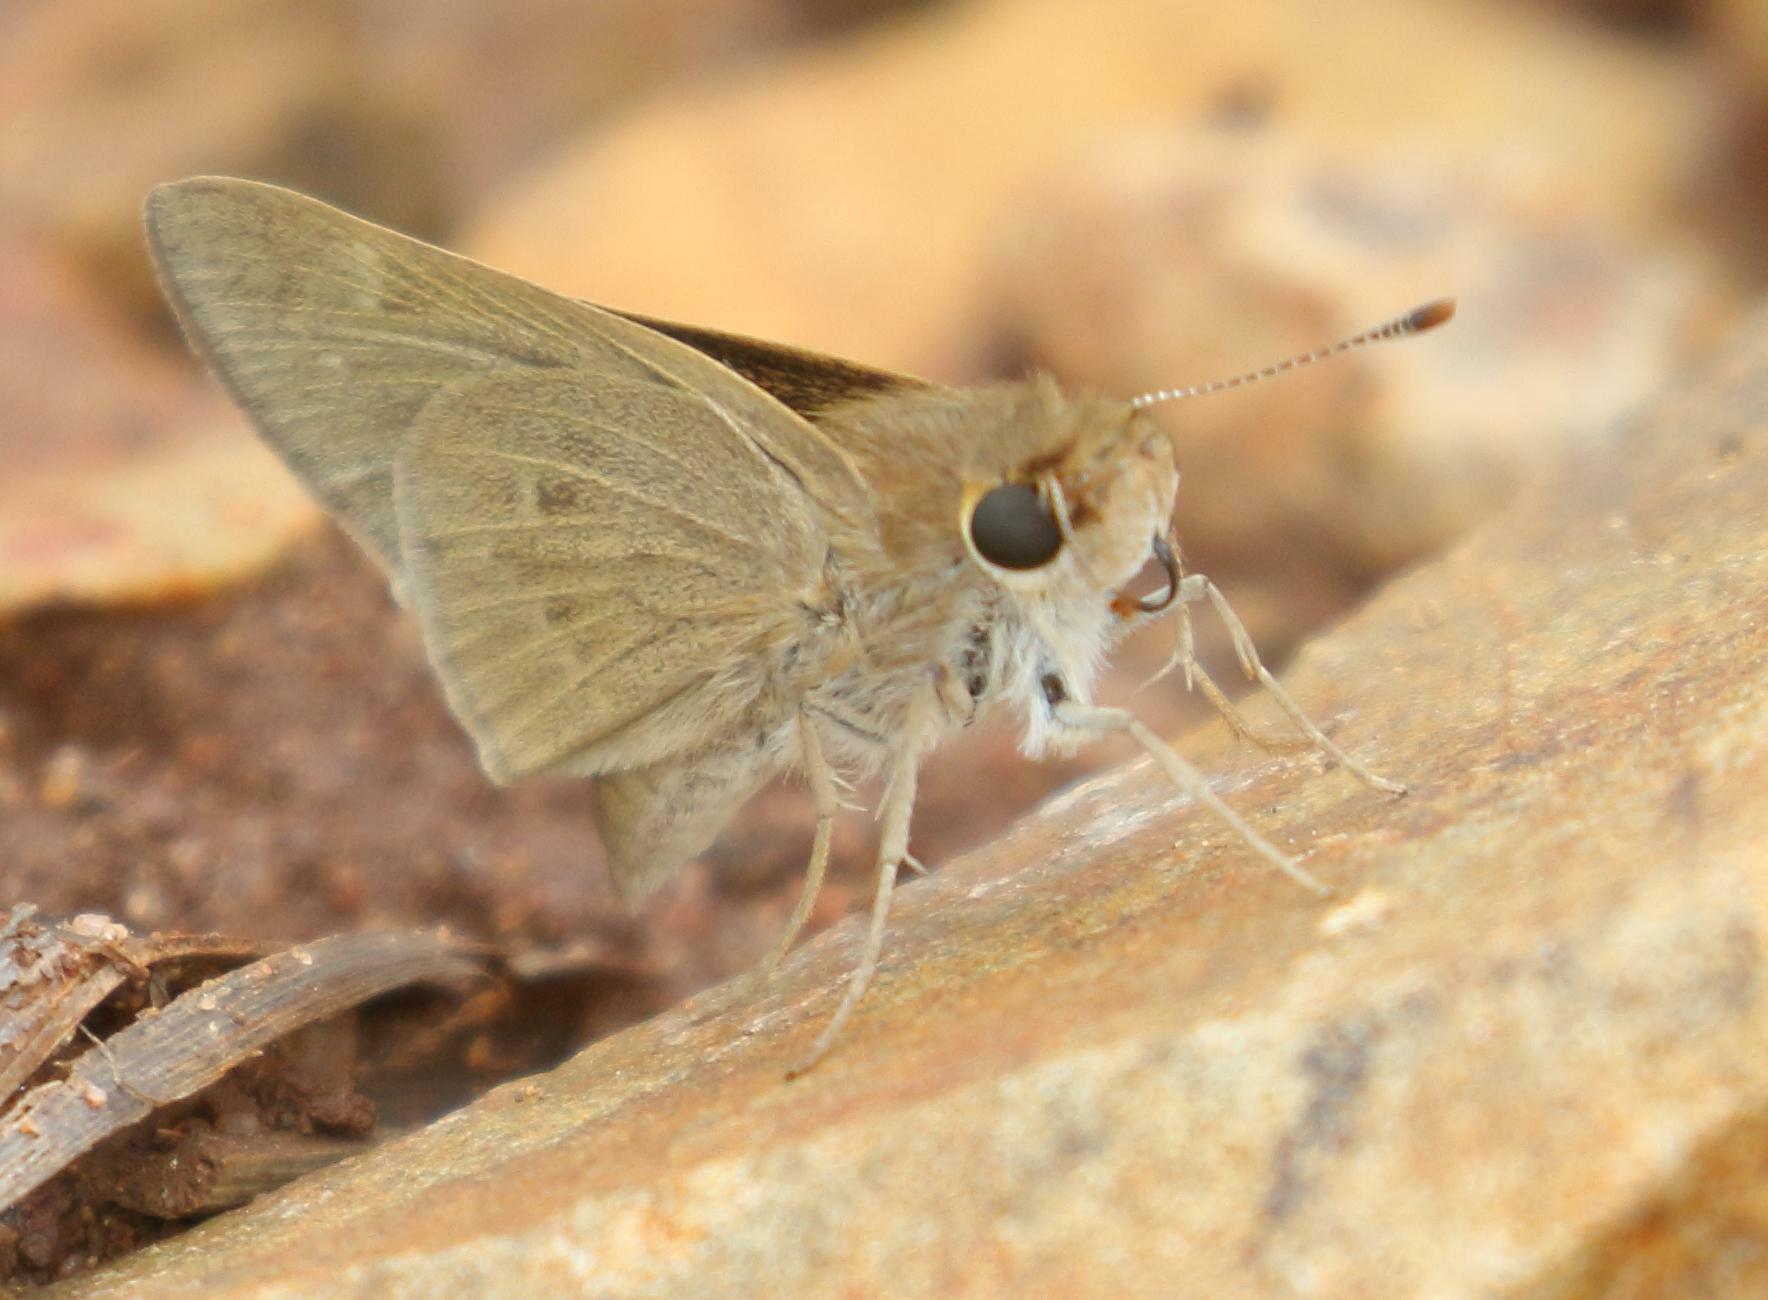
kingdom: Animalia
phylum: Arthropoda
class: Insecta
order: Lepidoptera
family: Hesperiidae
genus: Parnara
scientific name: Parnara naso
